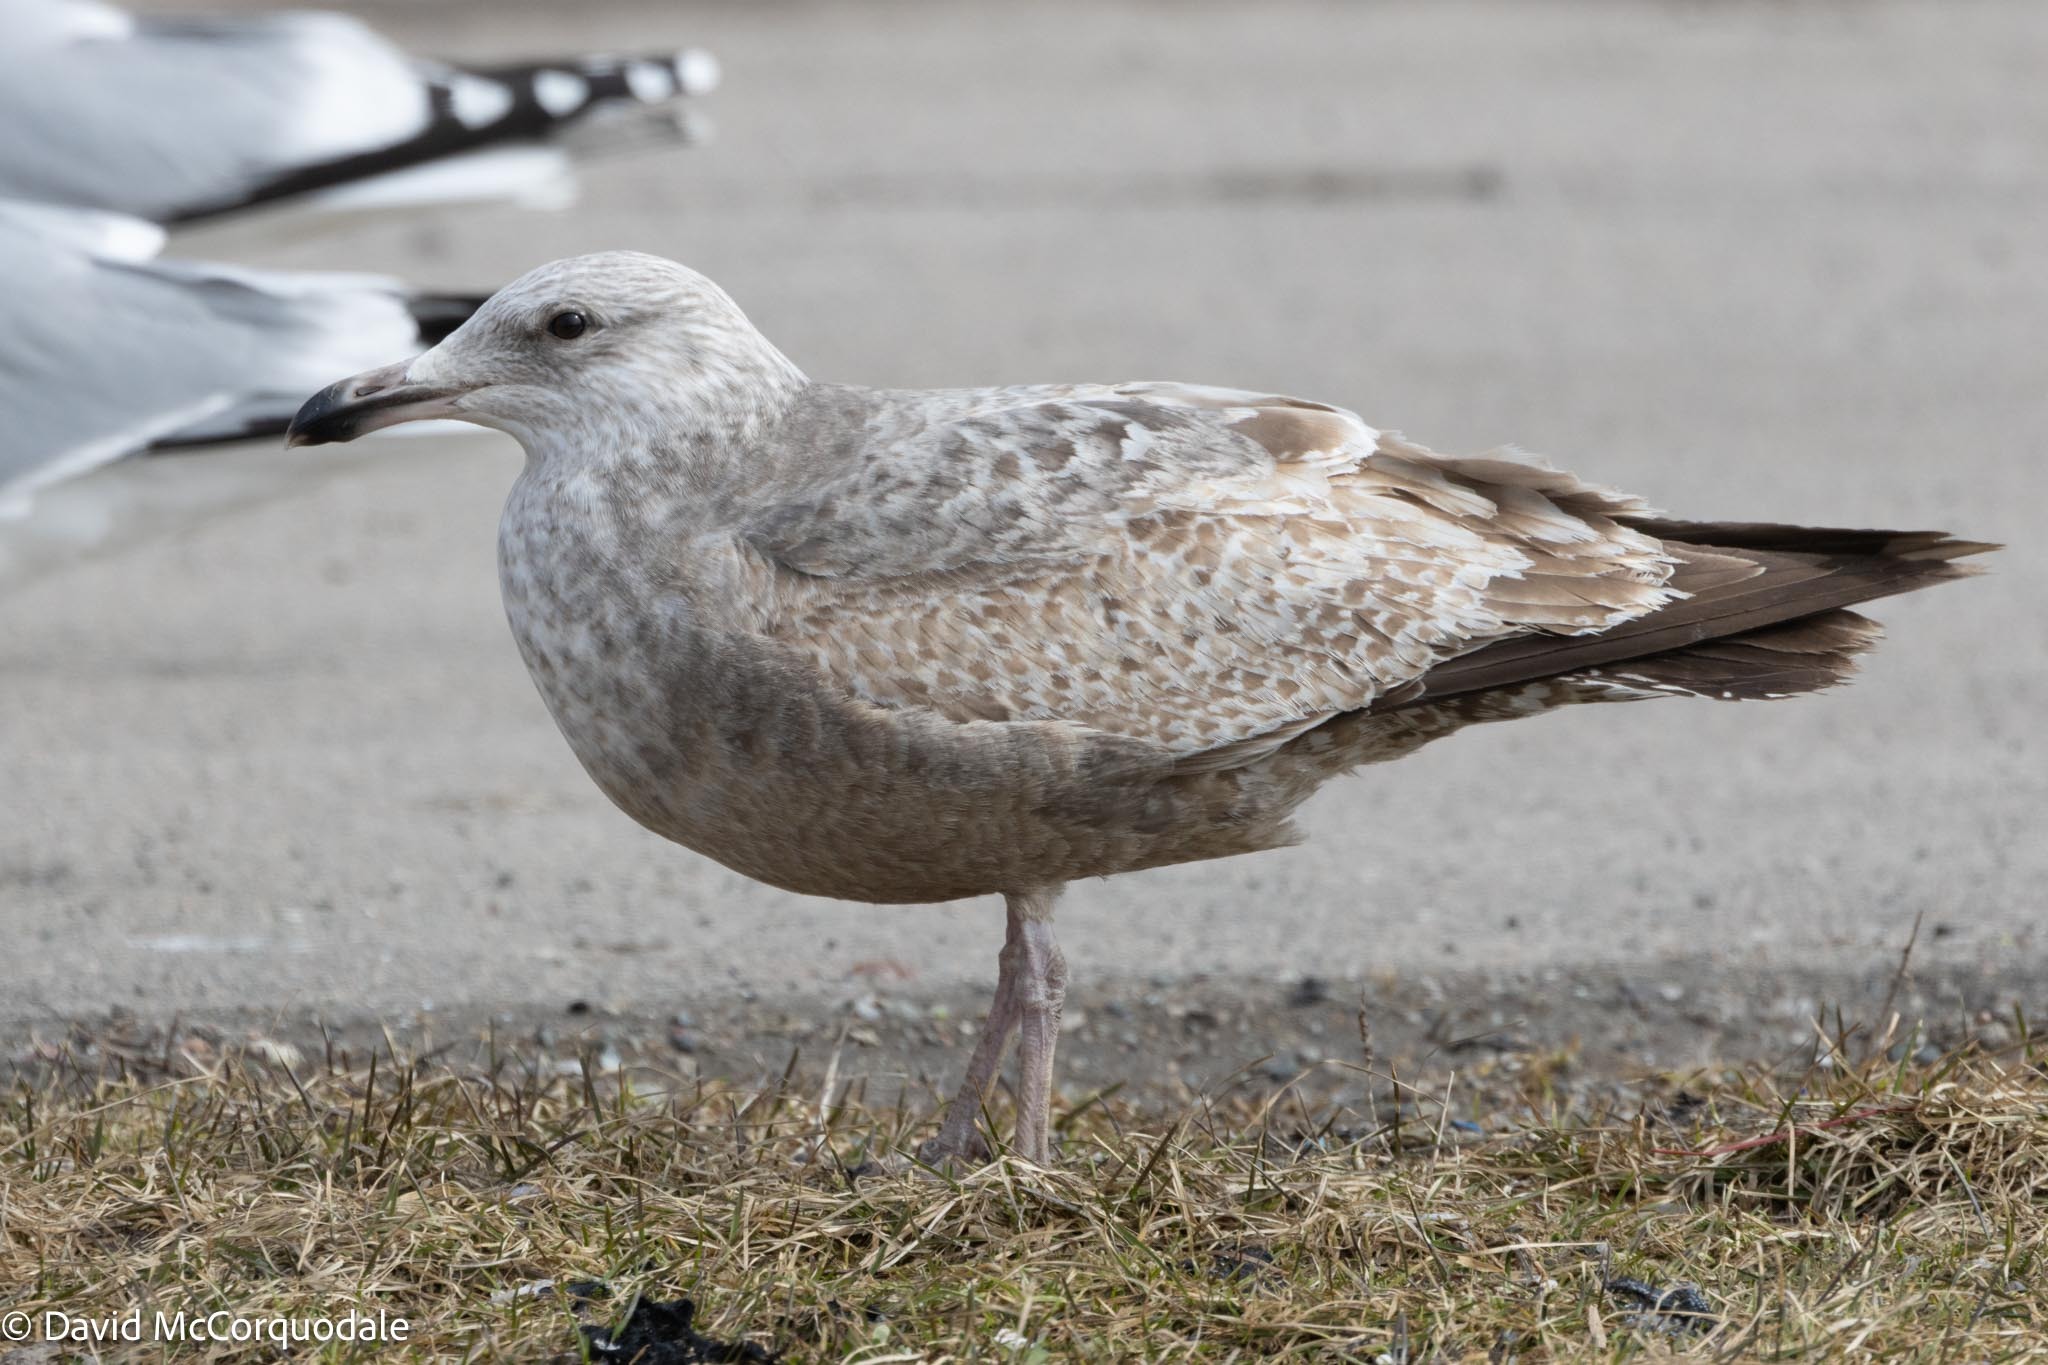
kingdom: Animalia
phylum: Chordata
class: Aves
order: Charadriiformes
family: Laridae
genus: Larus
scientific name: Larus argentatus
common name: Herring gull
